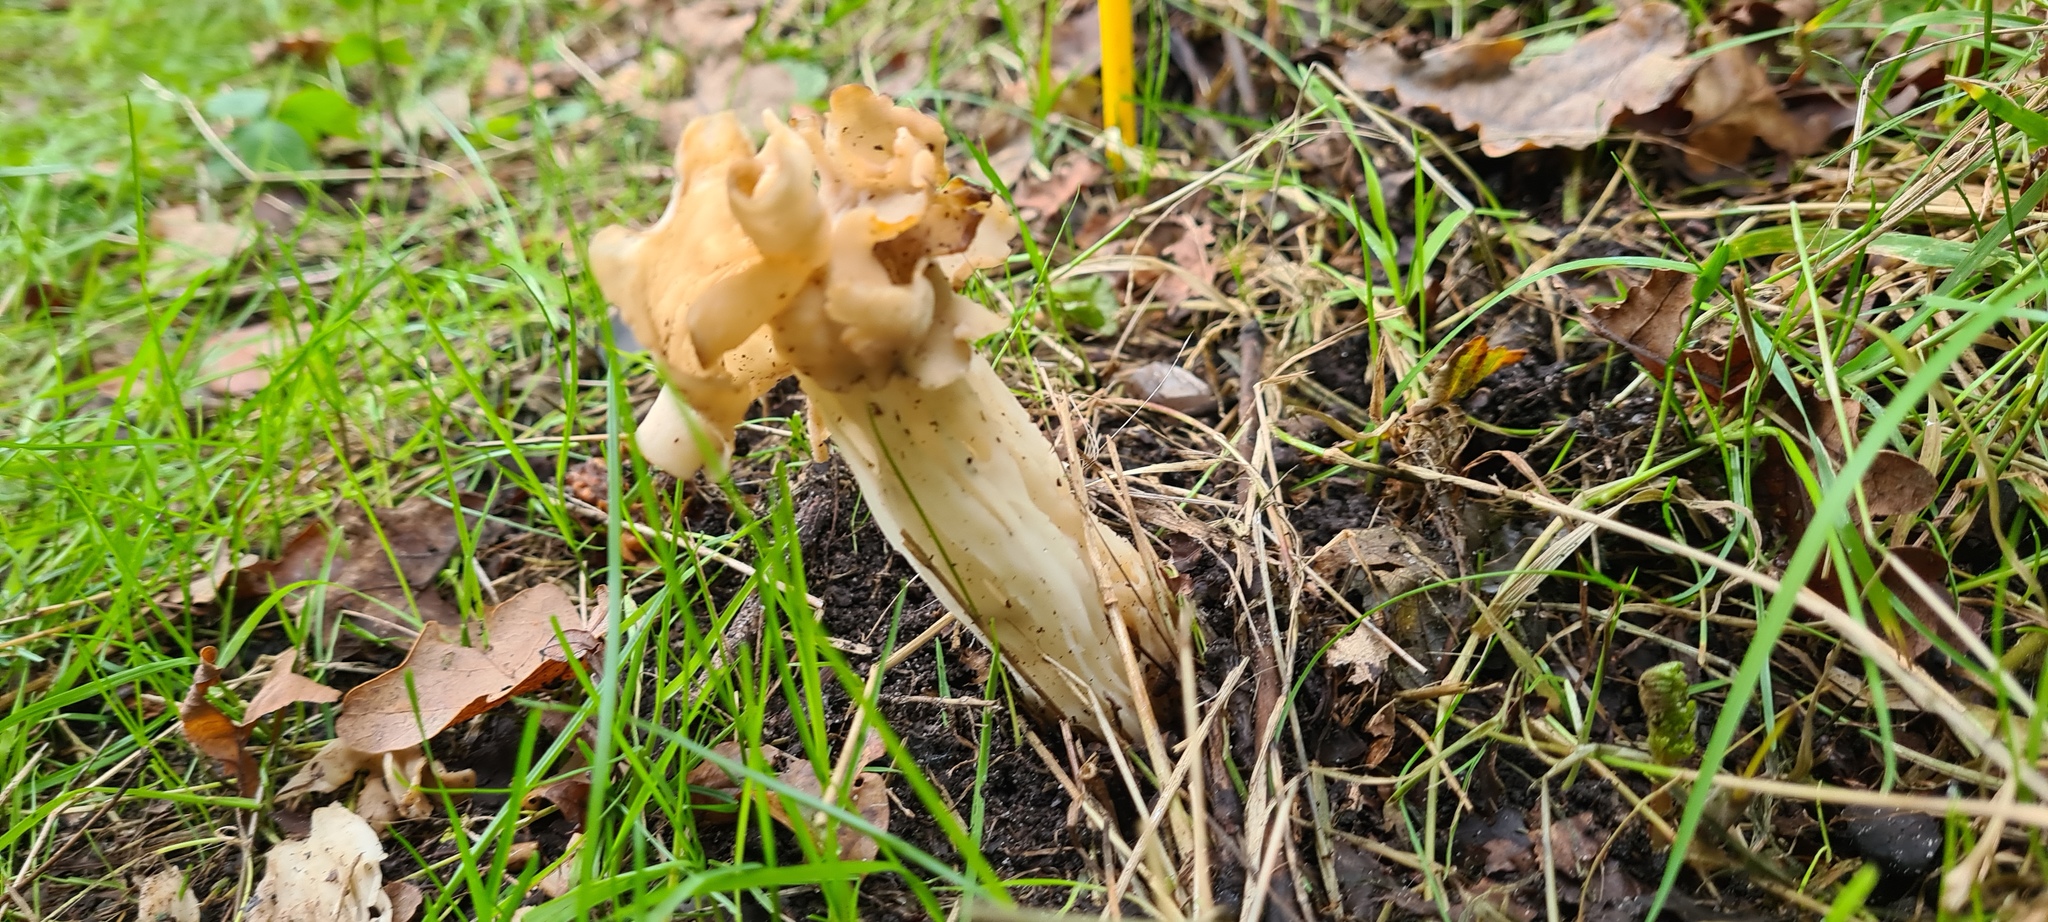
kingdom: Fungi
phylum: Ascomycota
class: Pezizomycetes
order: Pezizales
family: Helvellaceae
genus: Helvella
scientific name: Helvella crispa
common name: White saddle
